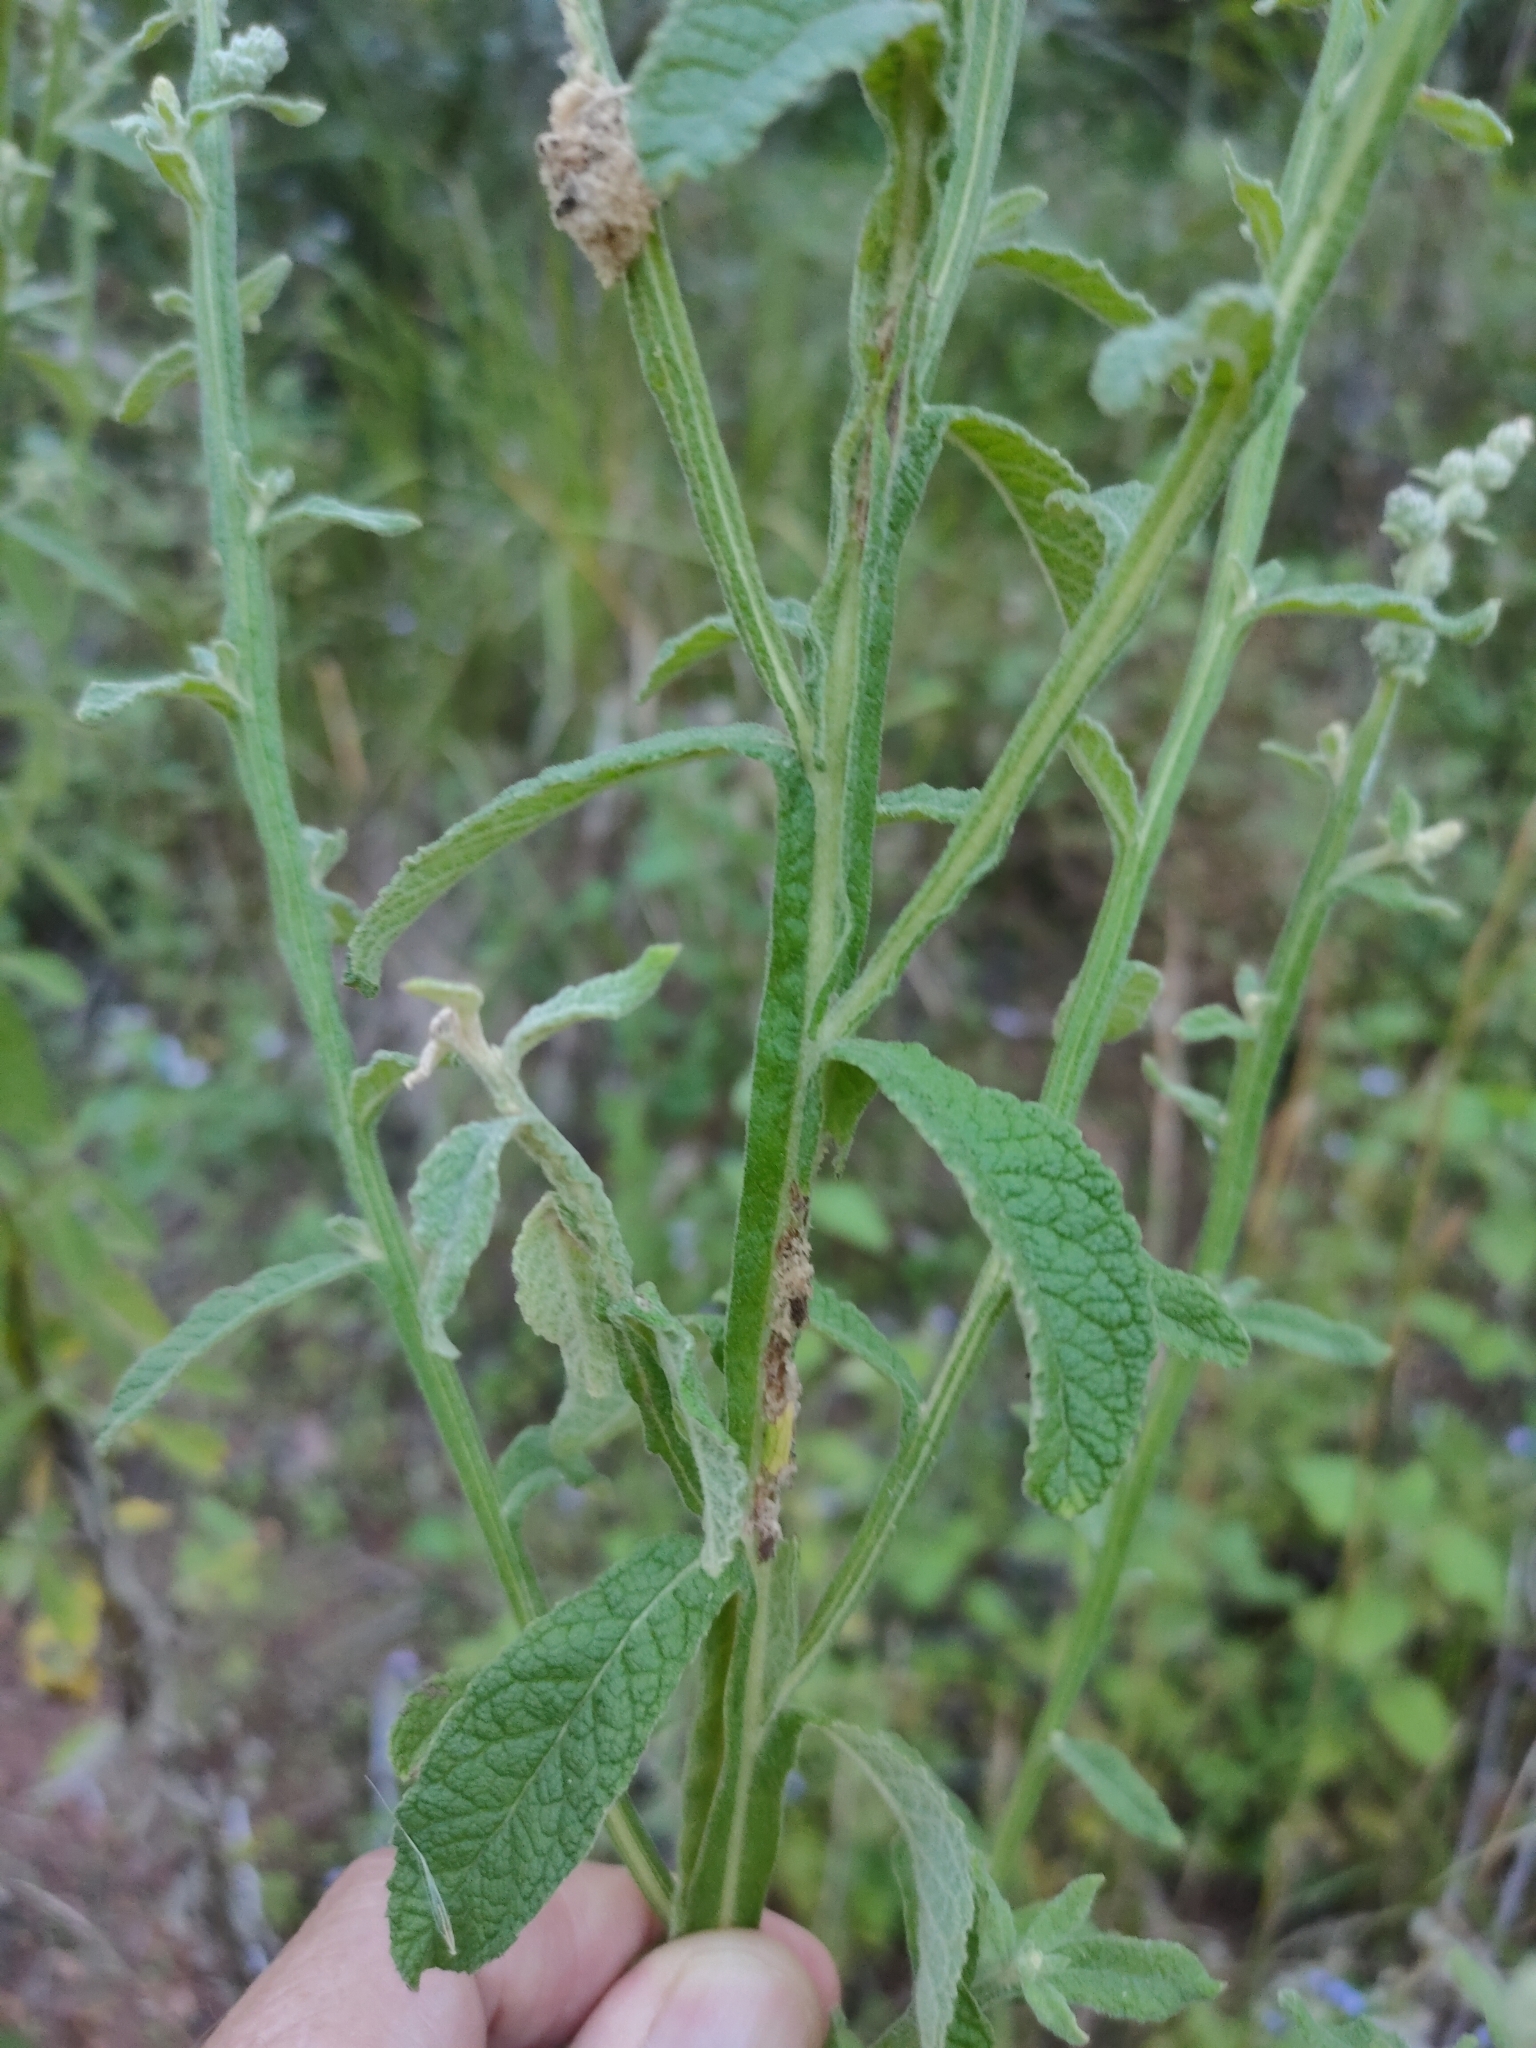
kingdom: Plantae
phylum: Tracheophyta
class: Magnoliopsida
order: Asterales
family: Asteraceae
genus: Pterocaulon
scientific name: Pterocaulon redolens
